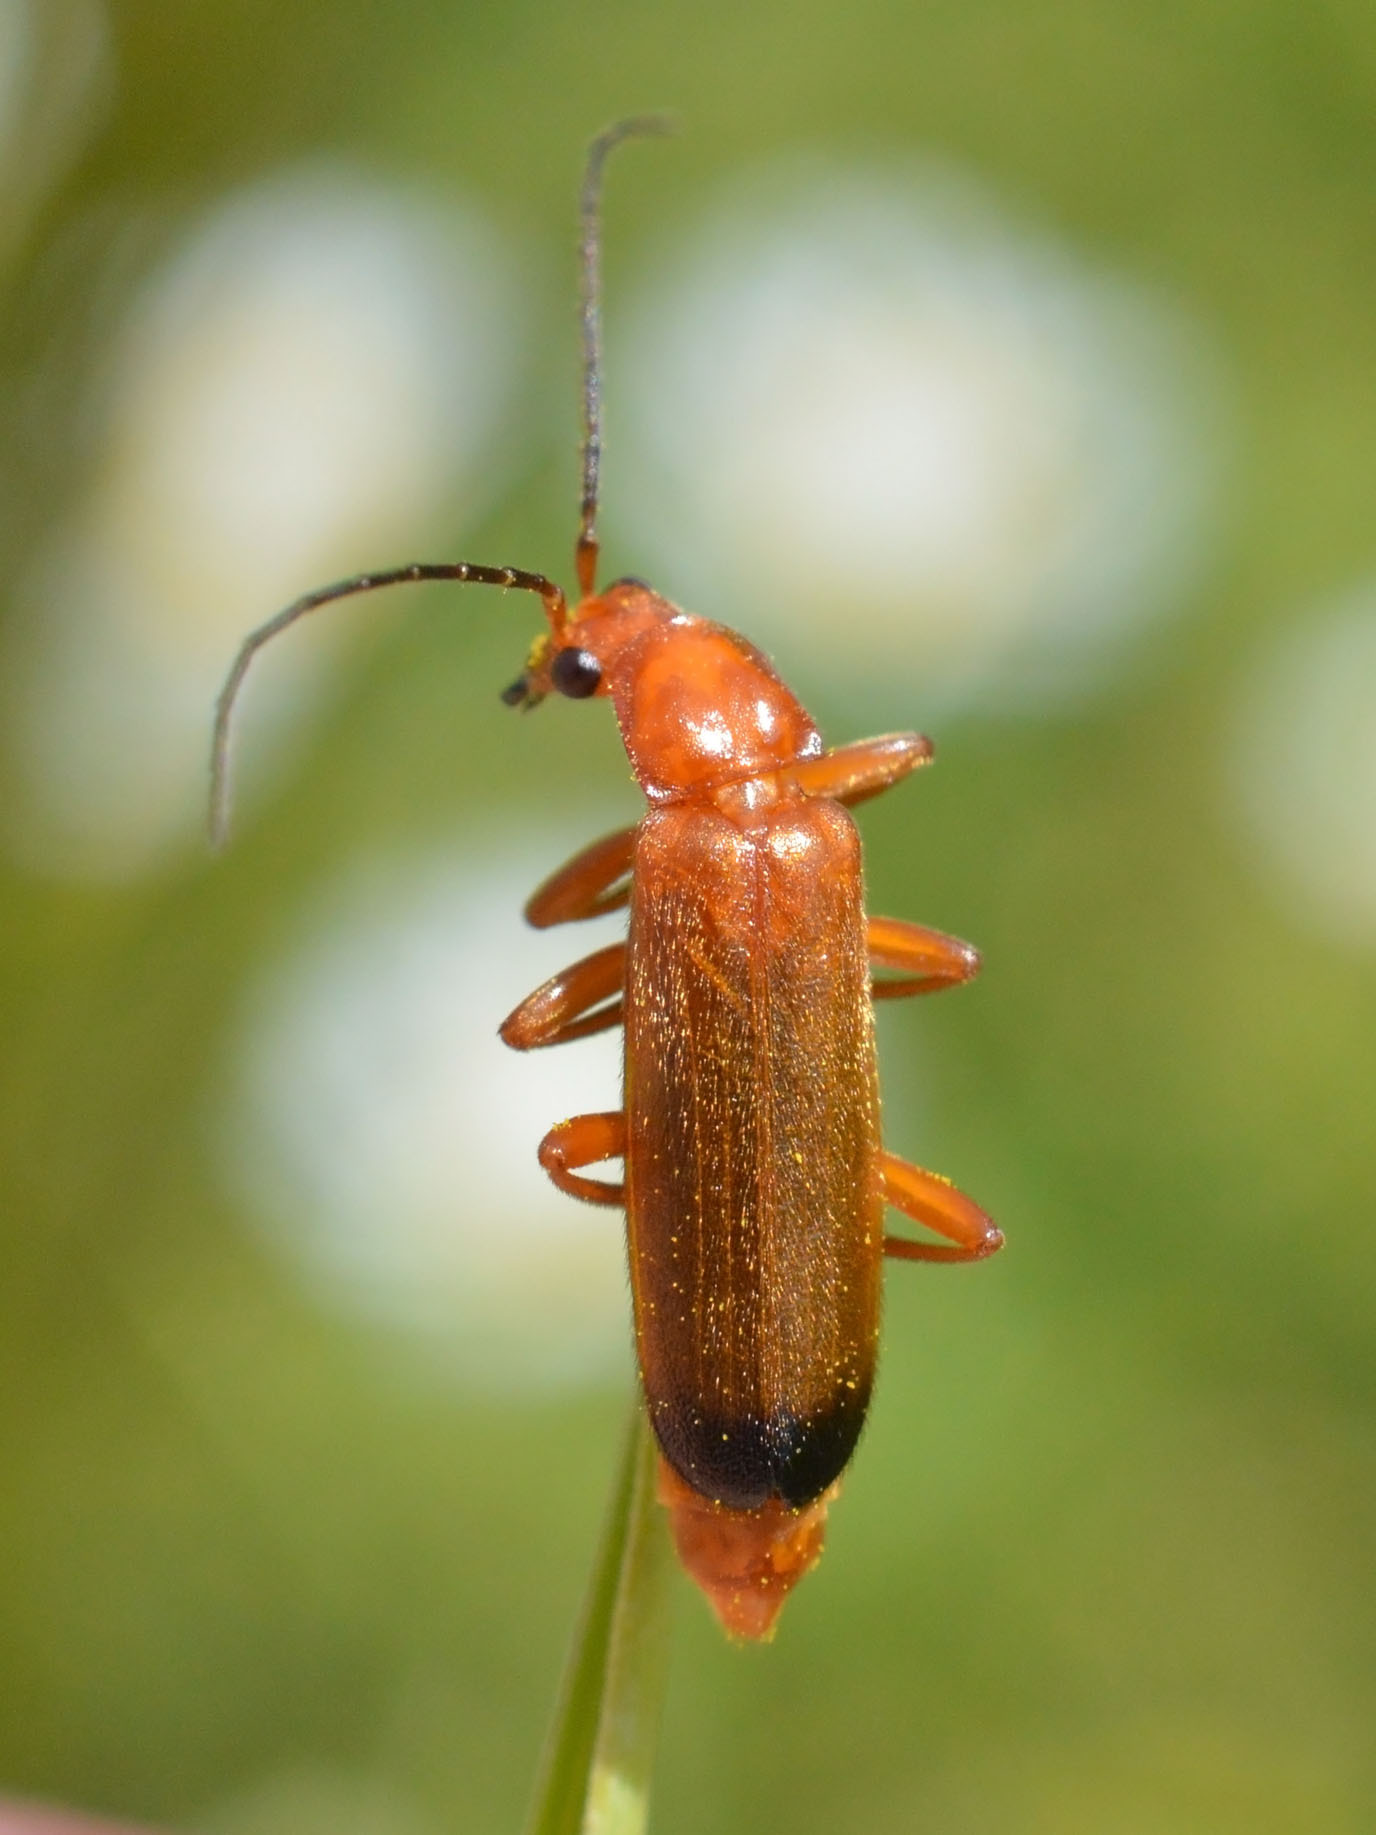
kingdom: Animalia
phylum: Arthropoda
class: Insecta
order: Coleoptera
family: Cantharidae
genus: Rhagonycha
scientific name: Rhagonycha fulva
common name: Common red soldier beetle
